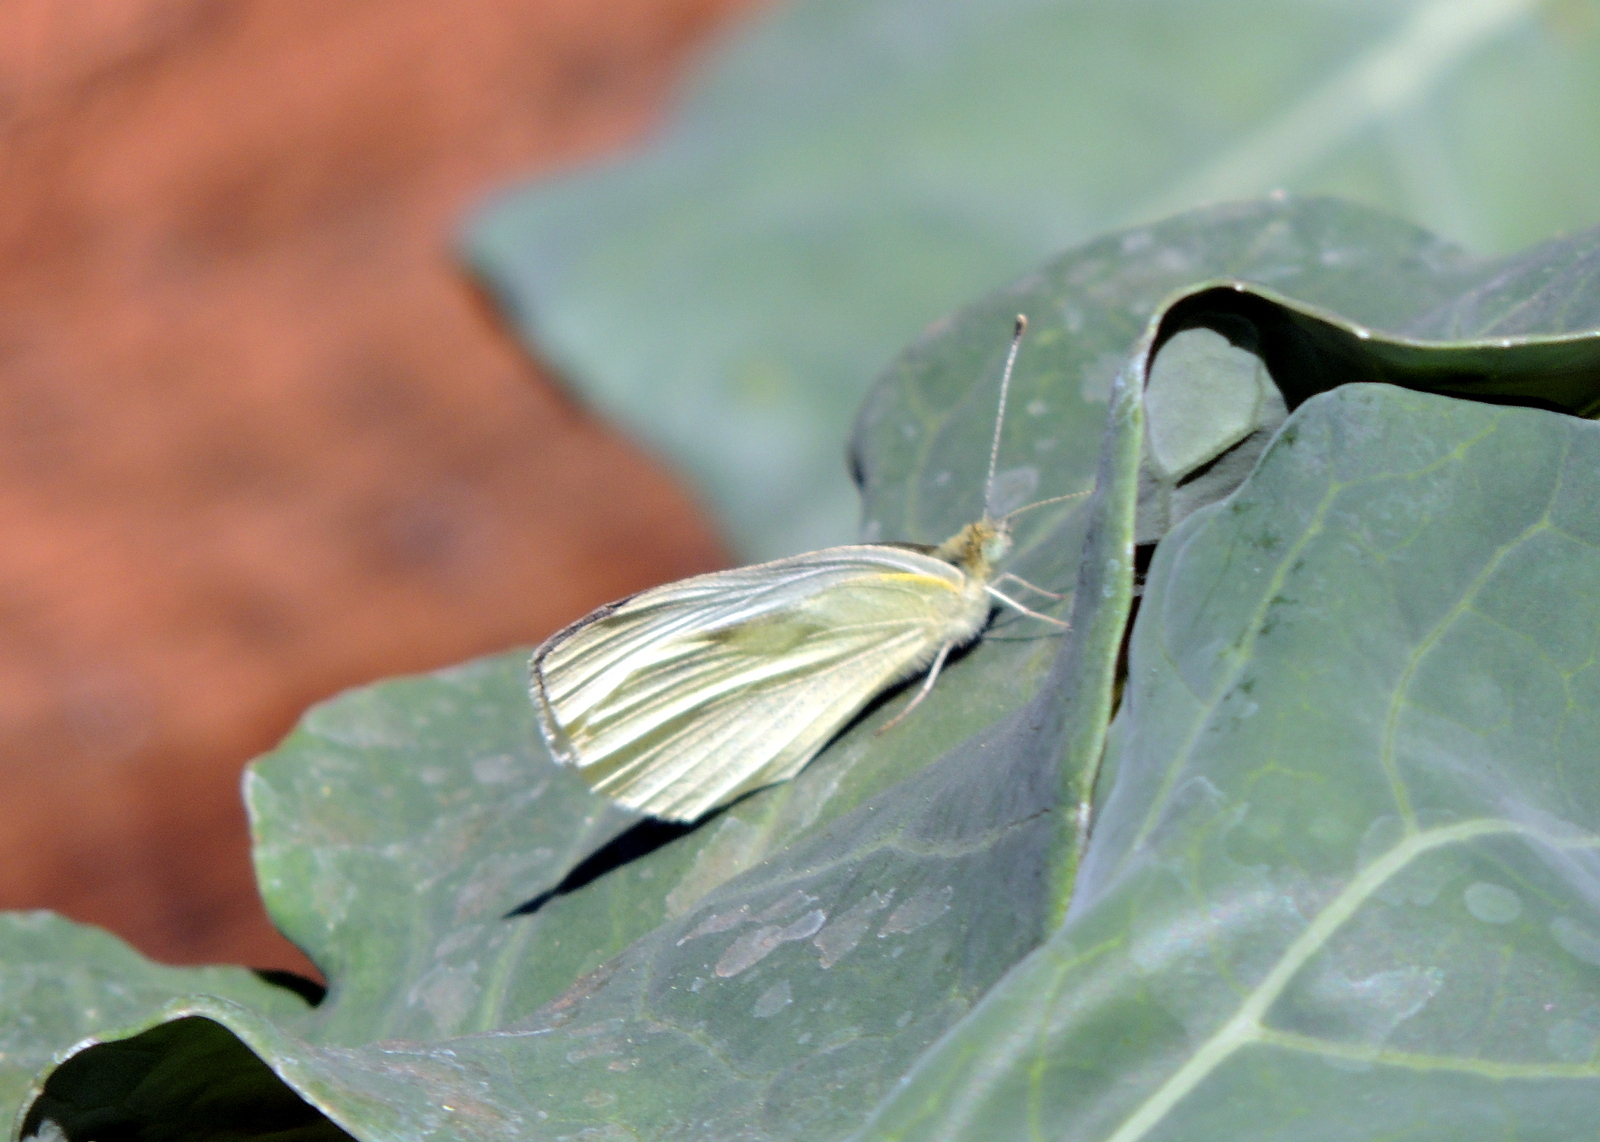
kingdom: Animalia
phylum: Arthropoda
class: Insecta
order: Lepidoptera
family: Pieridae
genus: Pieris
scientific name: Pieris rapae
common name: Small white
